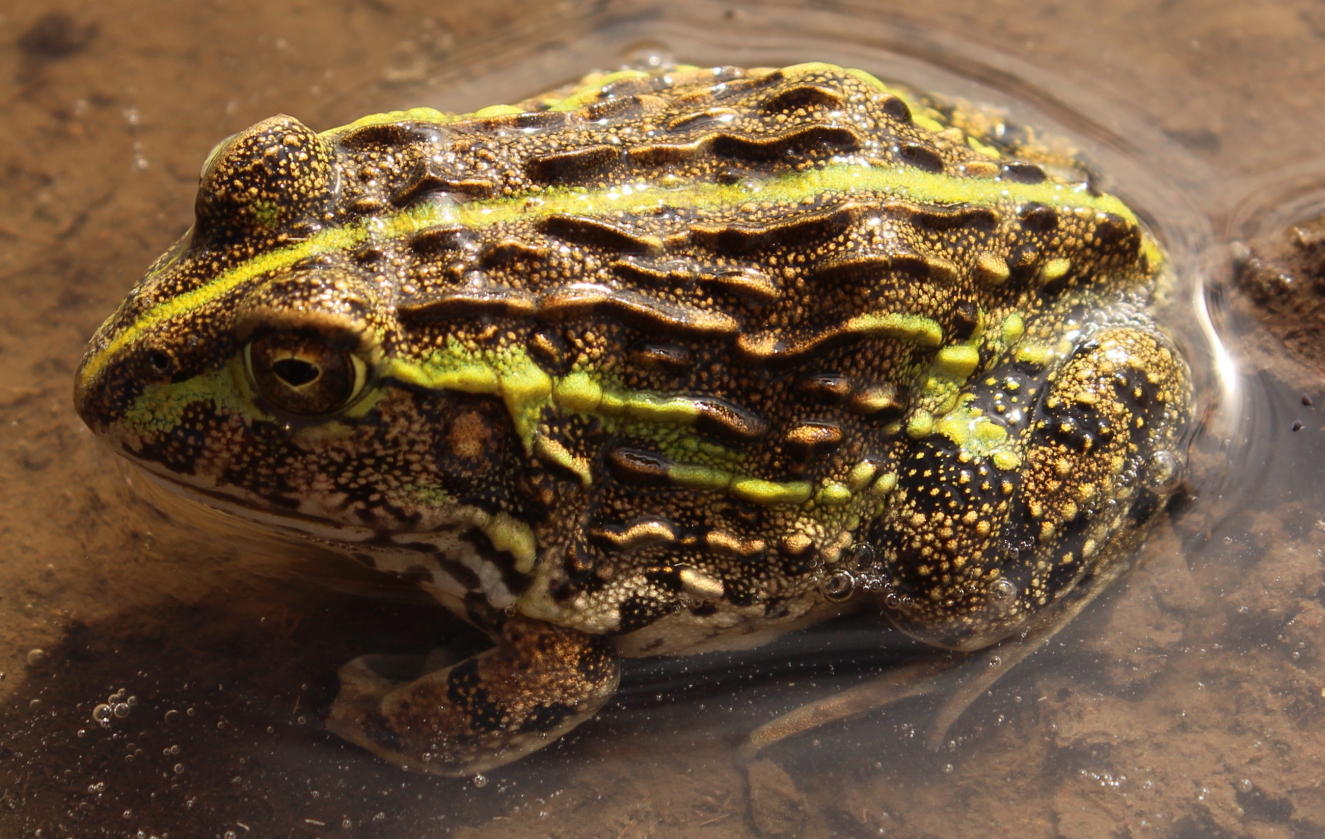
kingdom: Animalia
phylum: Chordata
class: Amphibia
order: Anura
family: Pyxicephalidae
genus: Pyxicephalus
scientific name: Pyxicephalus adspersus
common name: African bullfrog
